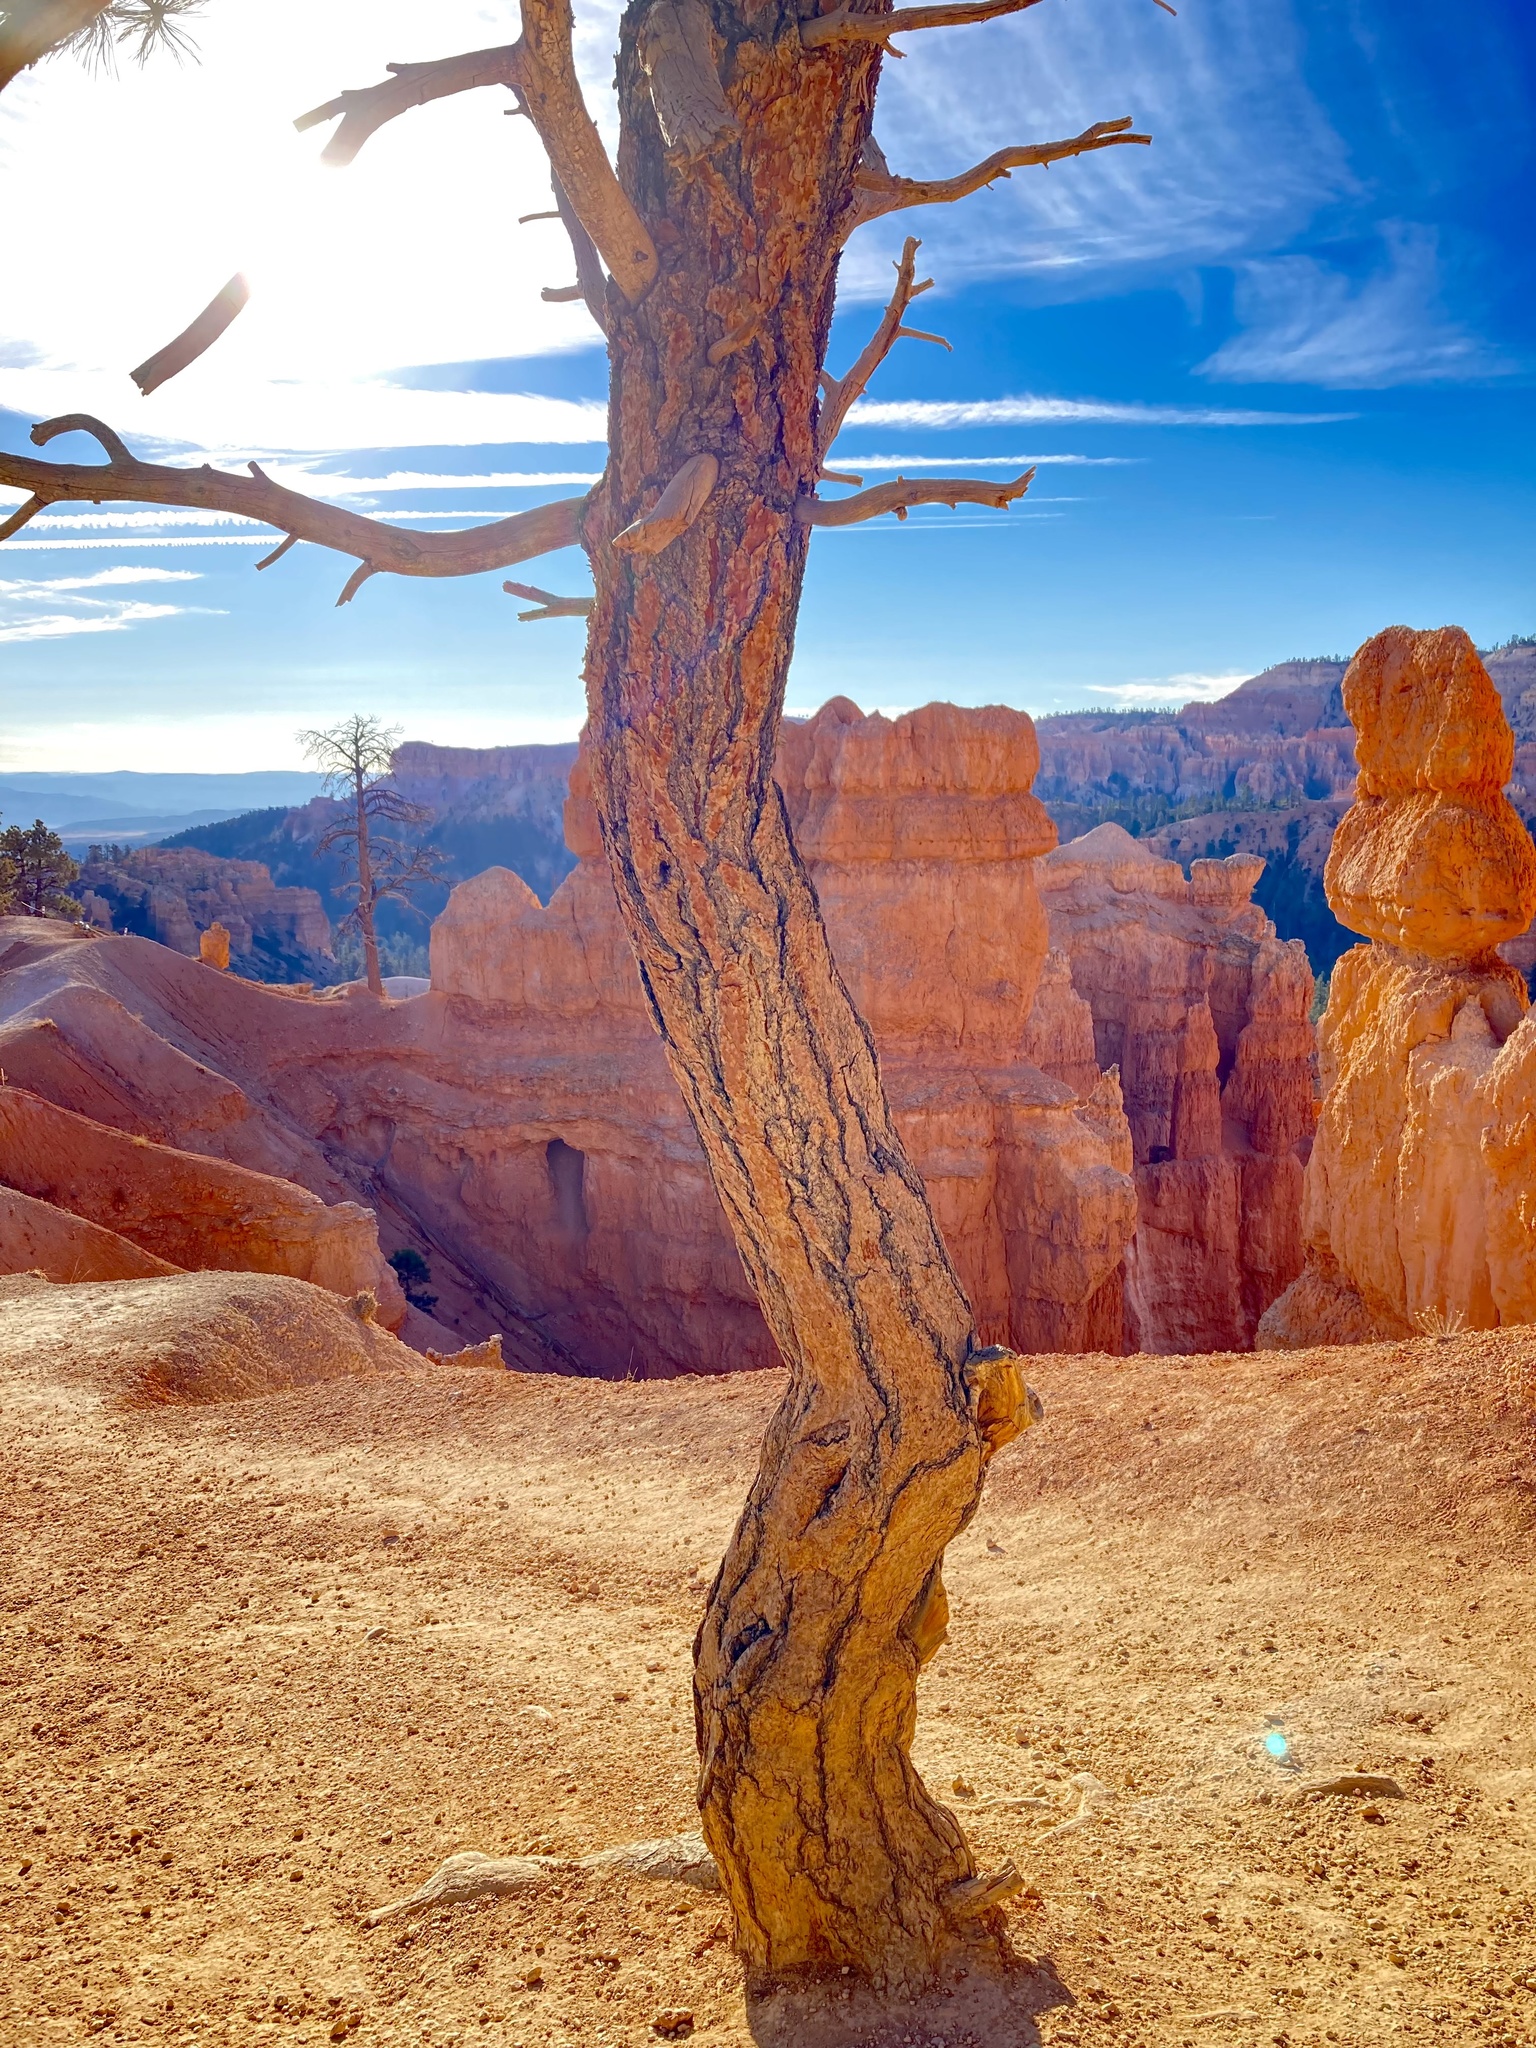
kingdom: Plantae
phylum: Tracheophyta
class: Pinopsida
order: Pinales
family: Pinaceae
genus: Pinus
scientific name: Pinus ponderosa
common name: Western yellow-pine
